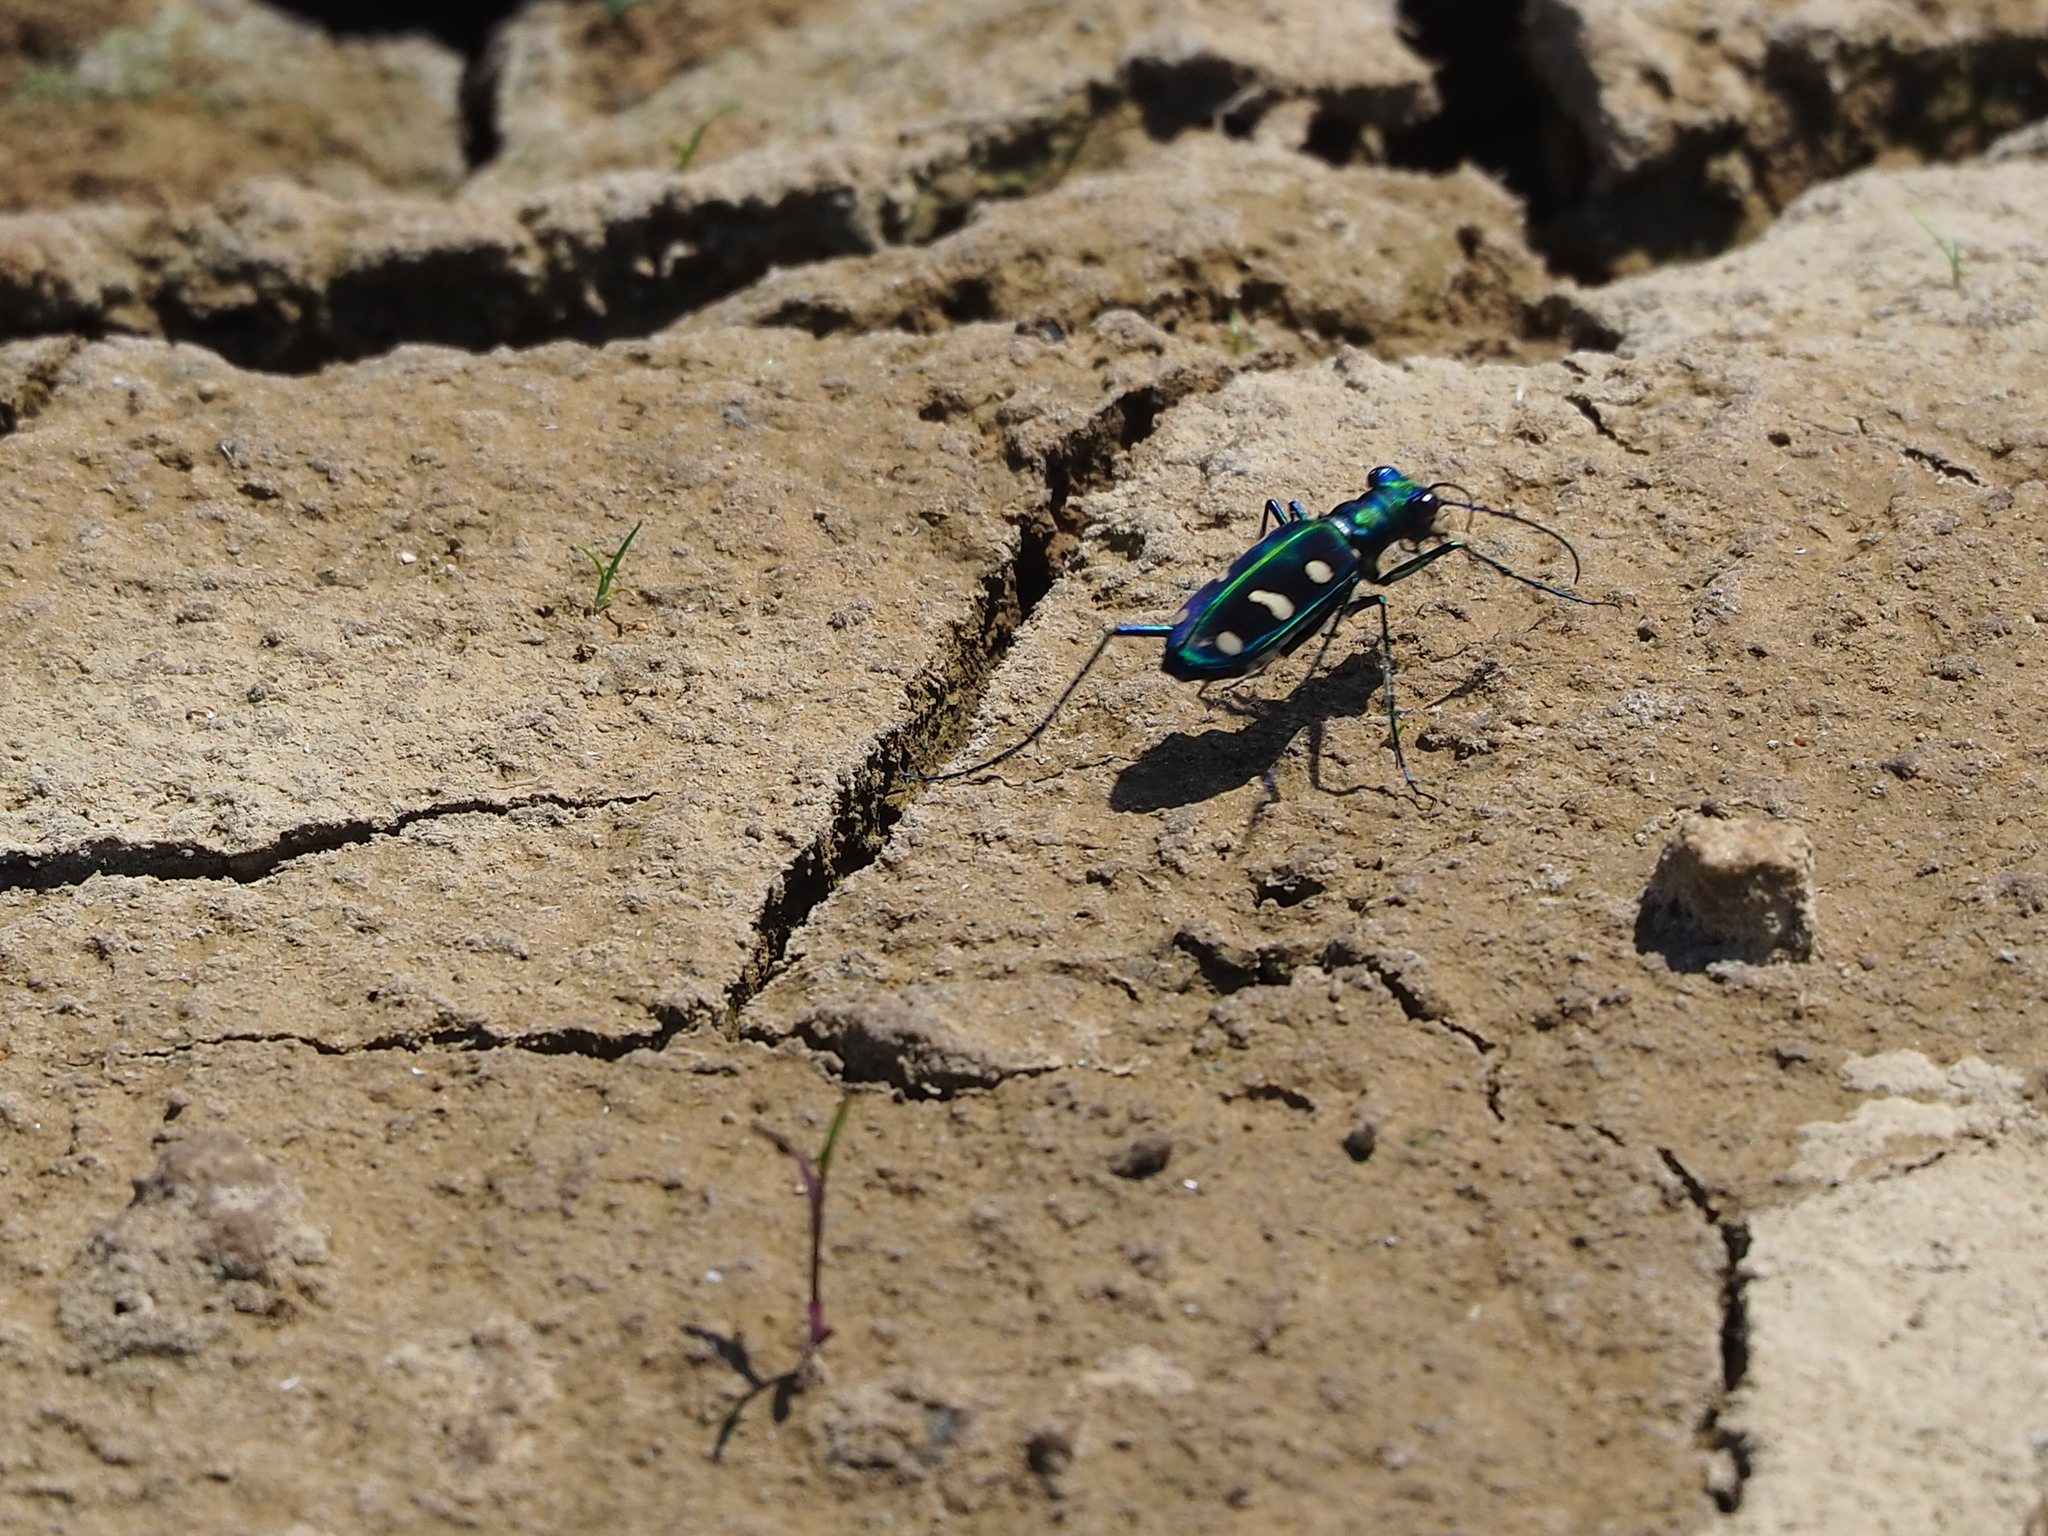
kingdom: Animalia
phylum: Arthropoda
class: Insecta
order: Coleoptera
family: Carabidae
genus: Cicindela
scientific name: Cicindela batesi
